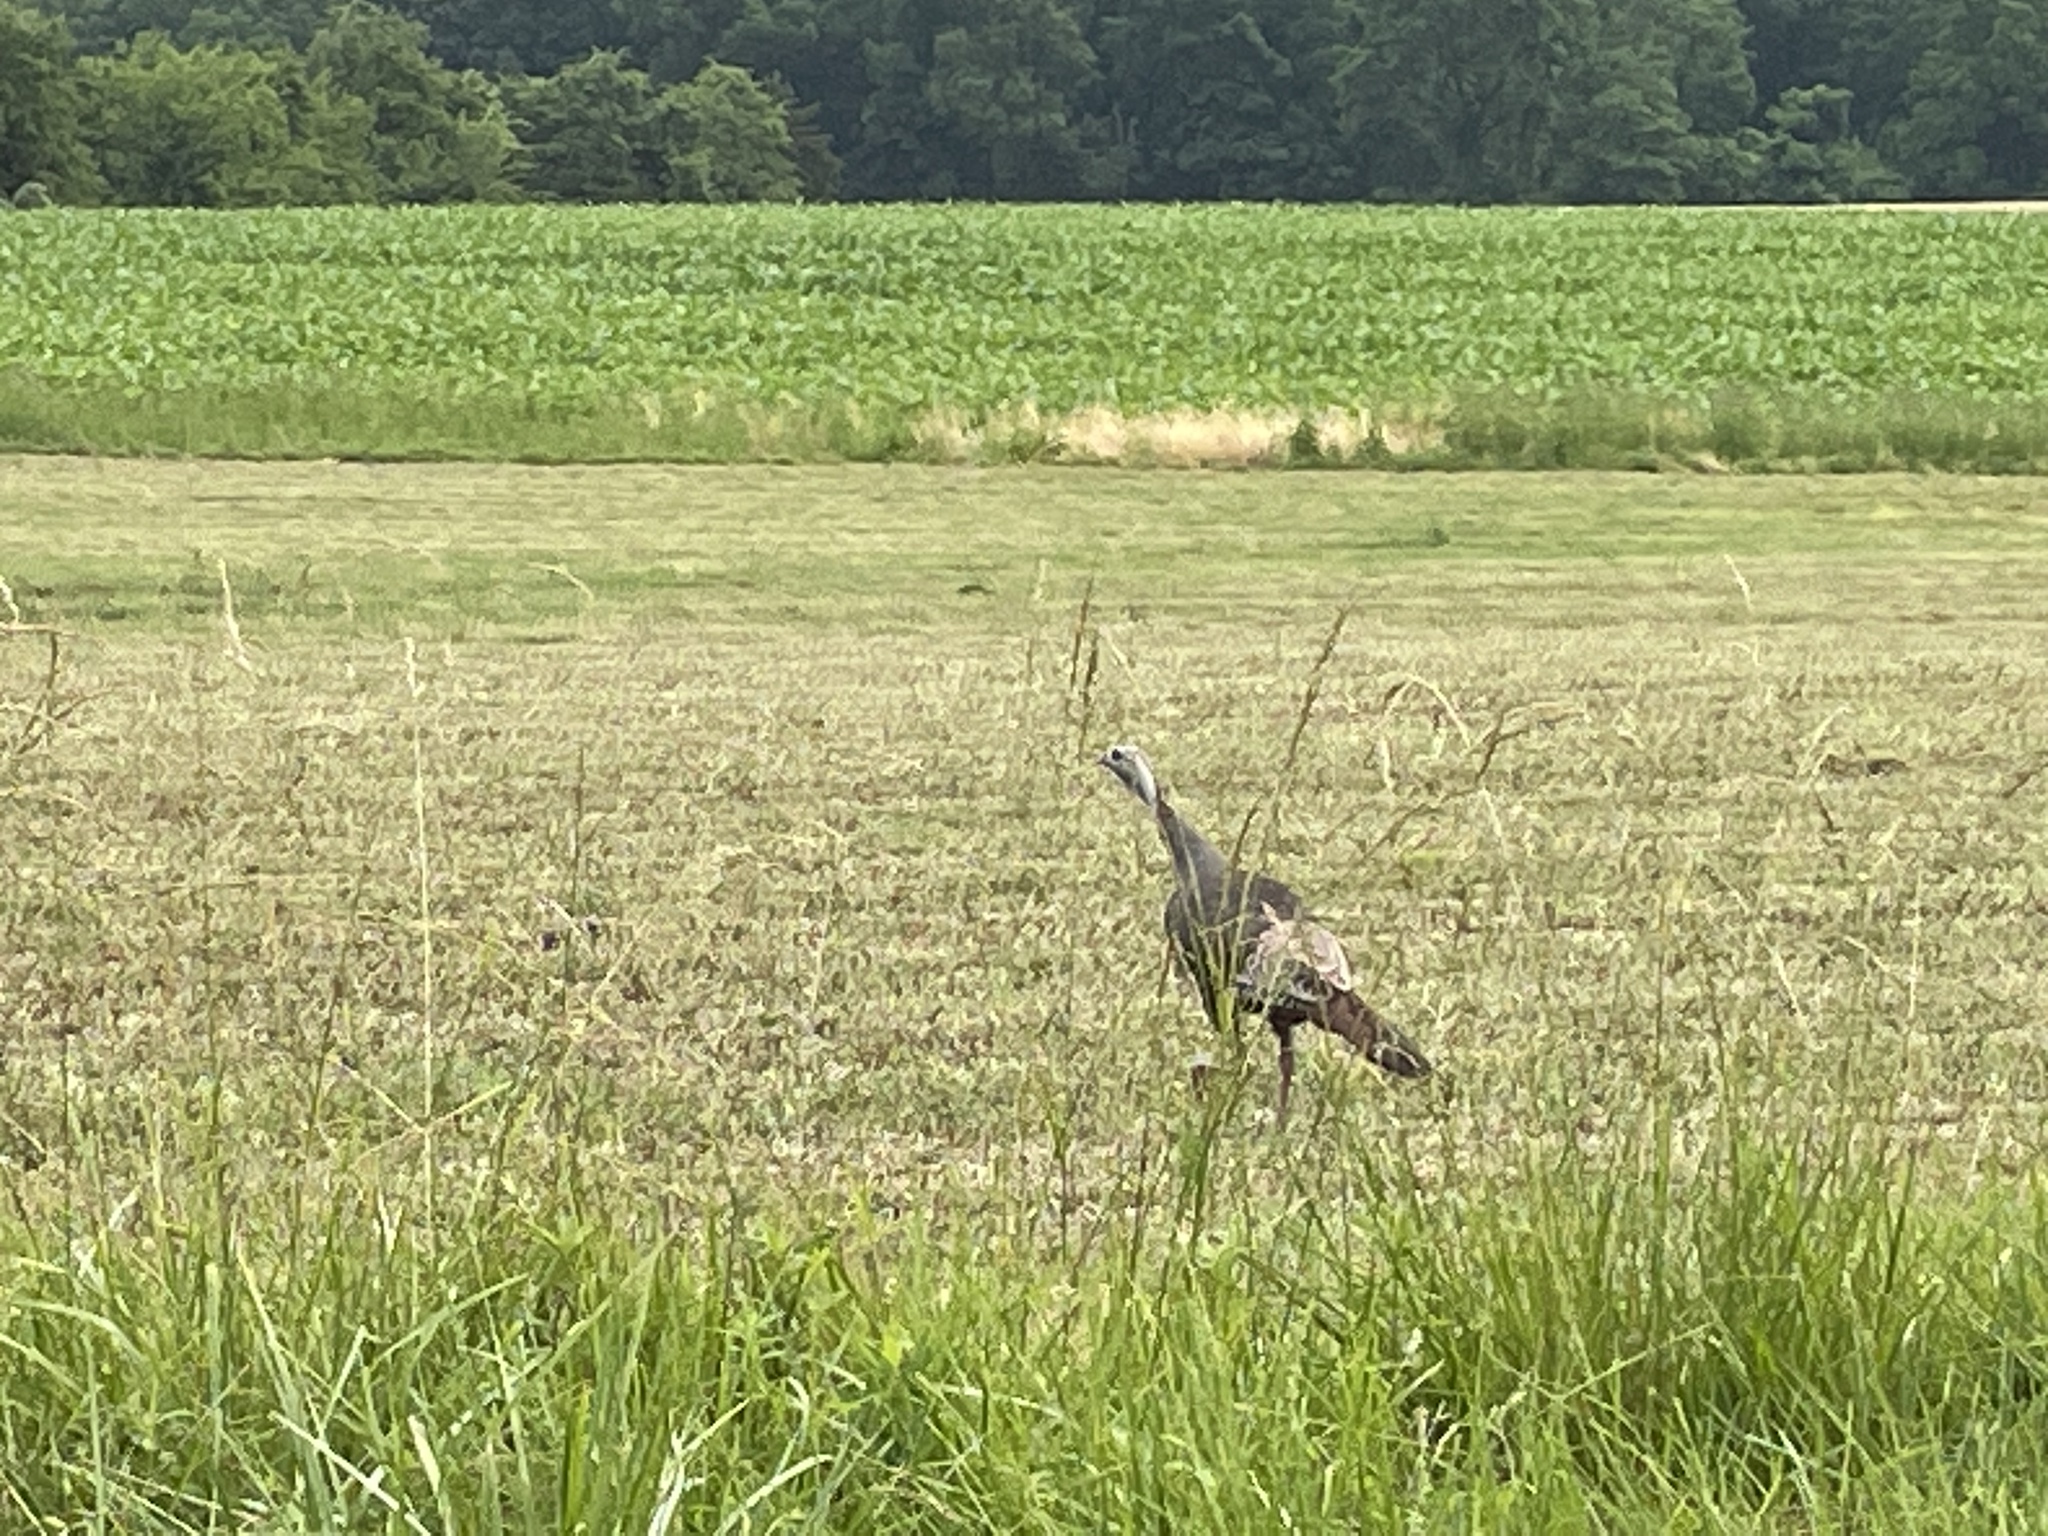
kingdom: Animalia
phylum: Chordata
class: Aves
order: Galliformes
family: Phasianidae
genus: Meleagris
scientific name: Meleagris gallopavo
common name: Wild turkey
